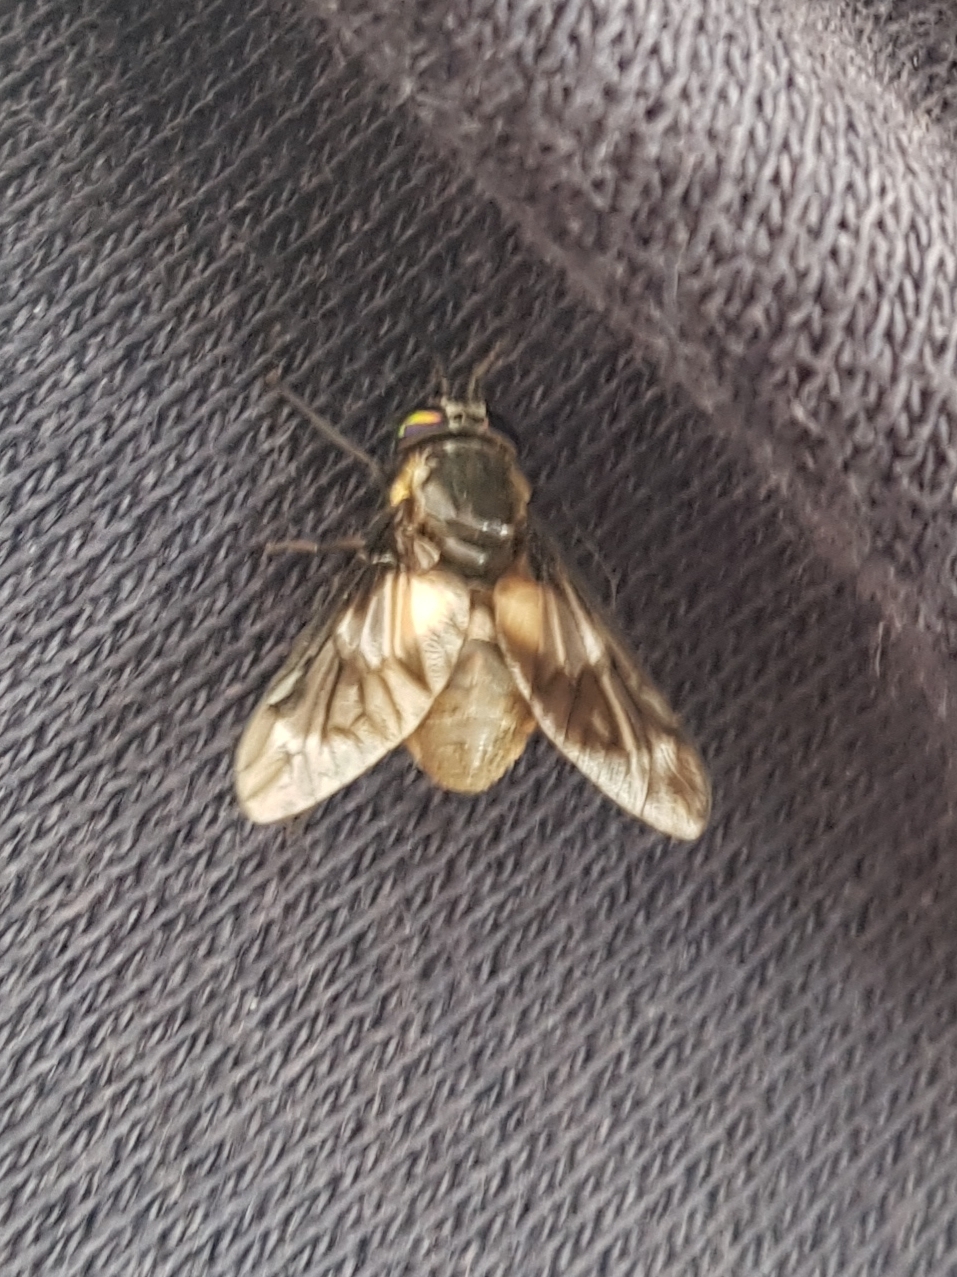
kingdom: Animalia
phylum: Arthropoda
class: Insecta
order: Diptera
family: Tabanidae
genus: Chrysops
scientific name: Chrysops caecutiens
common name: Splayed deerfly
